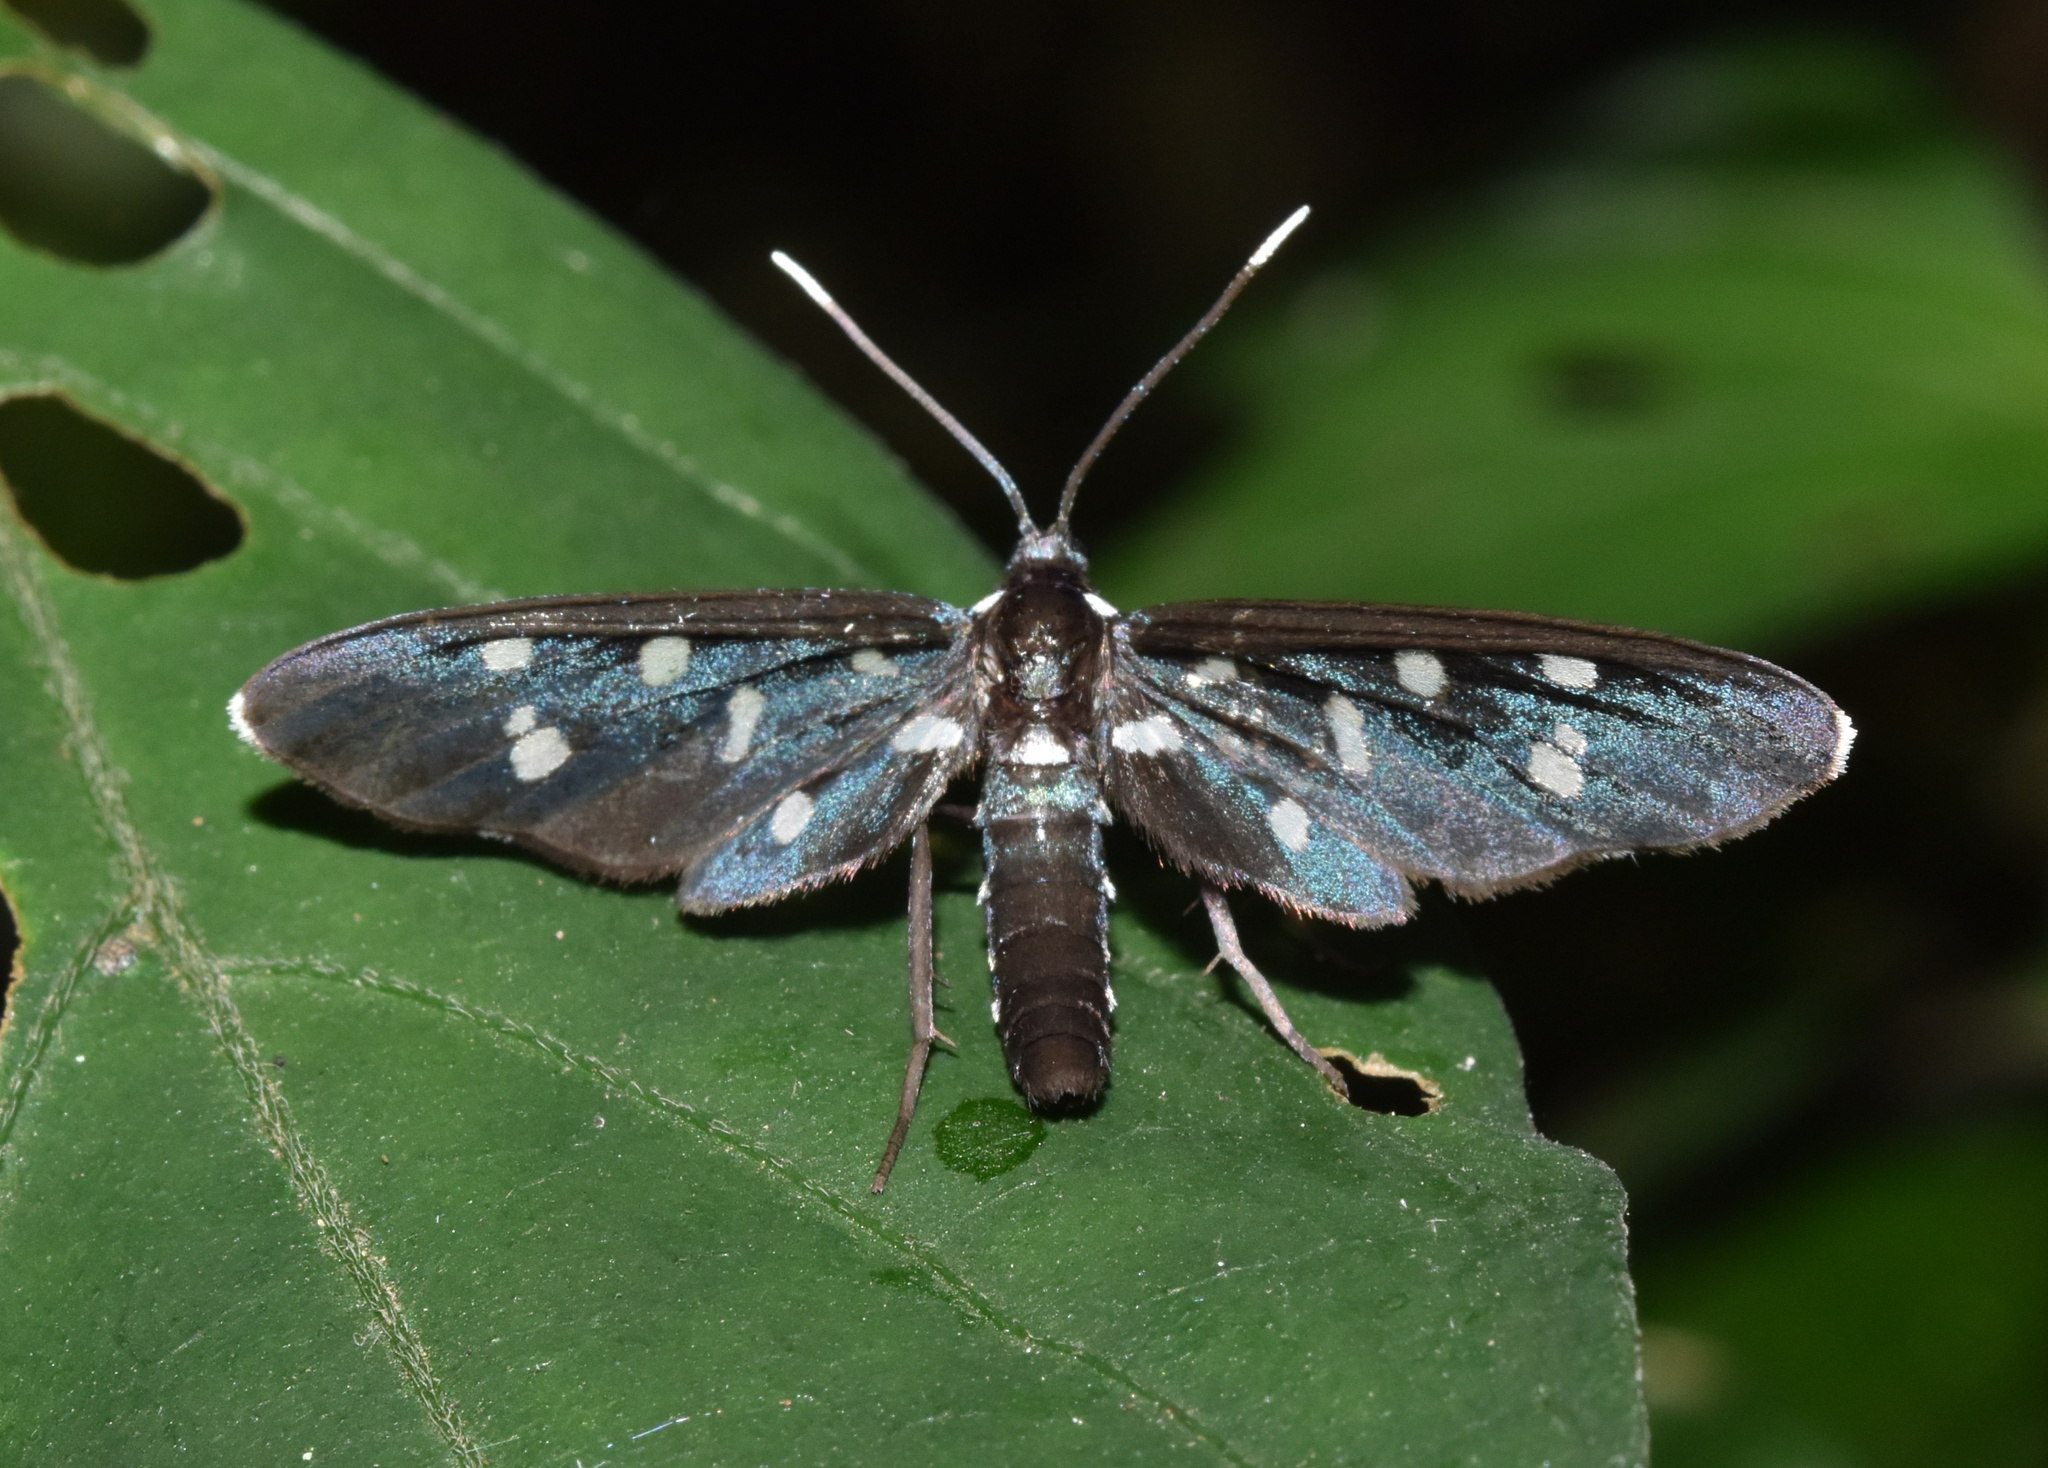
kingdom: Animalia
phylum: Arthropoda
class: Insecta
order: Lepidoptera
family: Erebidae
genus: Ceryx
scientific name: Ceryx longipes
